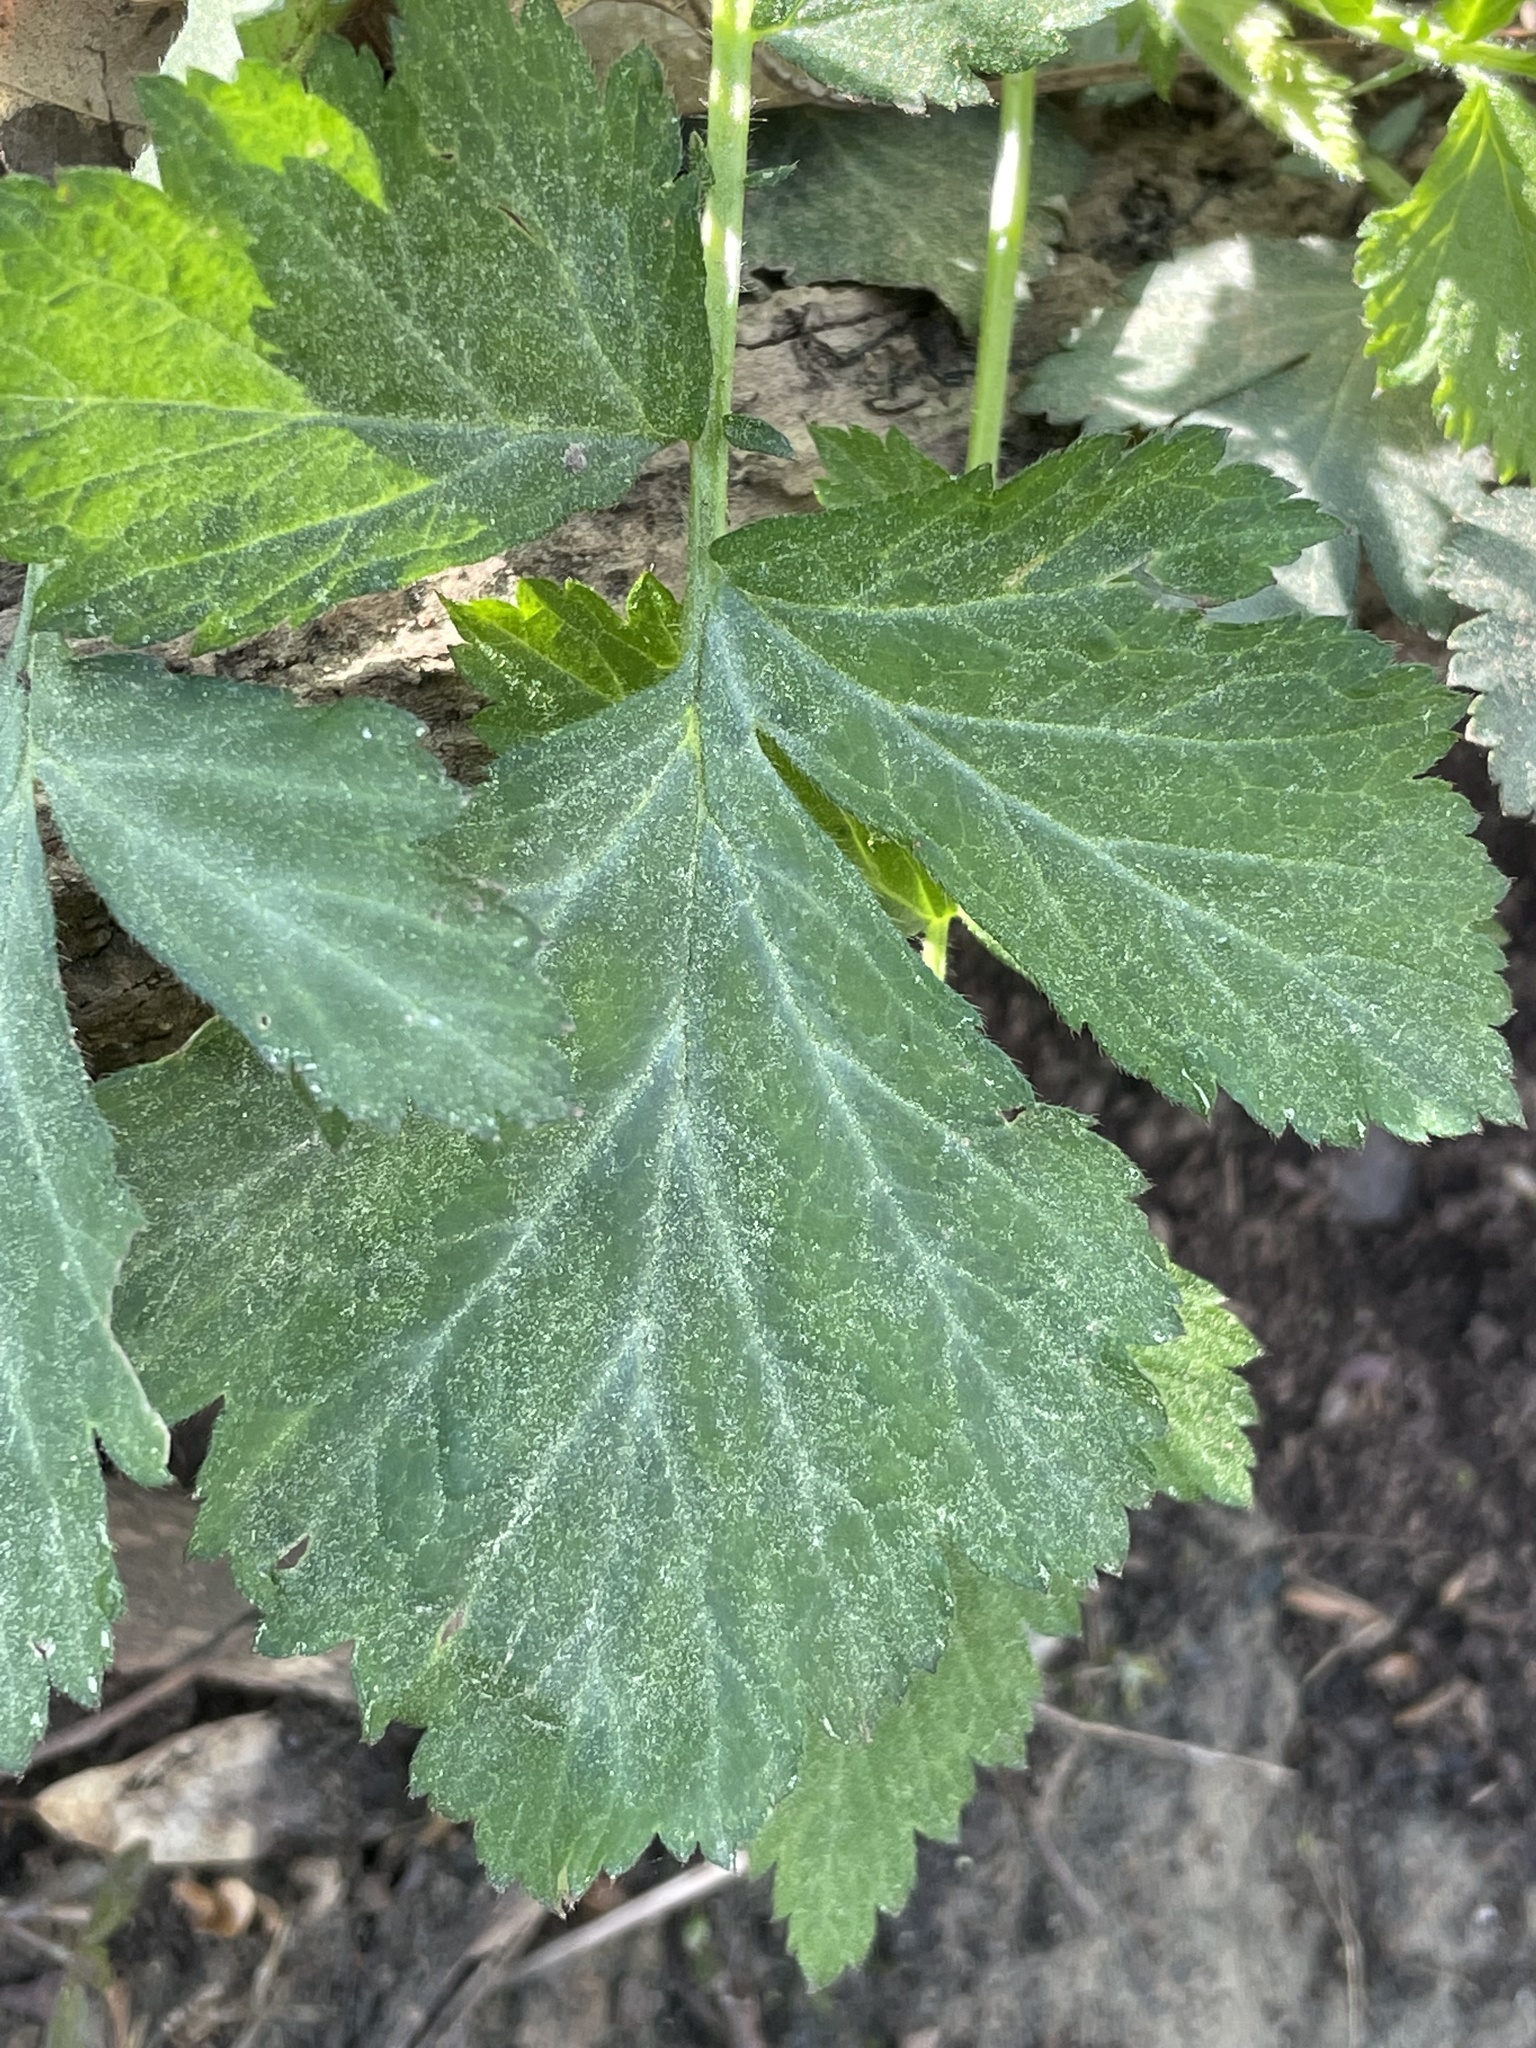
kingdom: Plantae
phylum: Tracheophyta
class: Magnoliopsida
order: Rosales
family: Rosaceae
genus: Geum
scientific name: Geum canadense
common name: White avens
